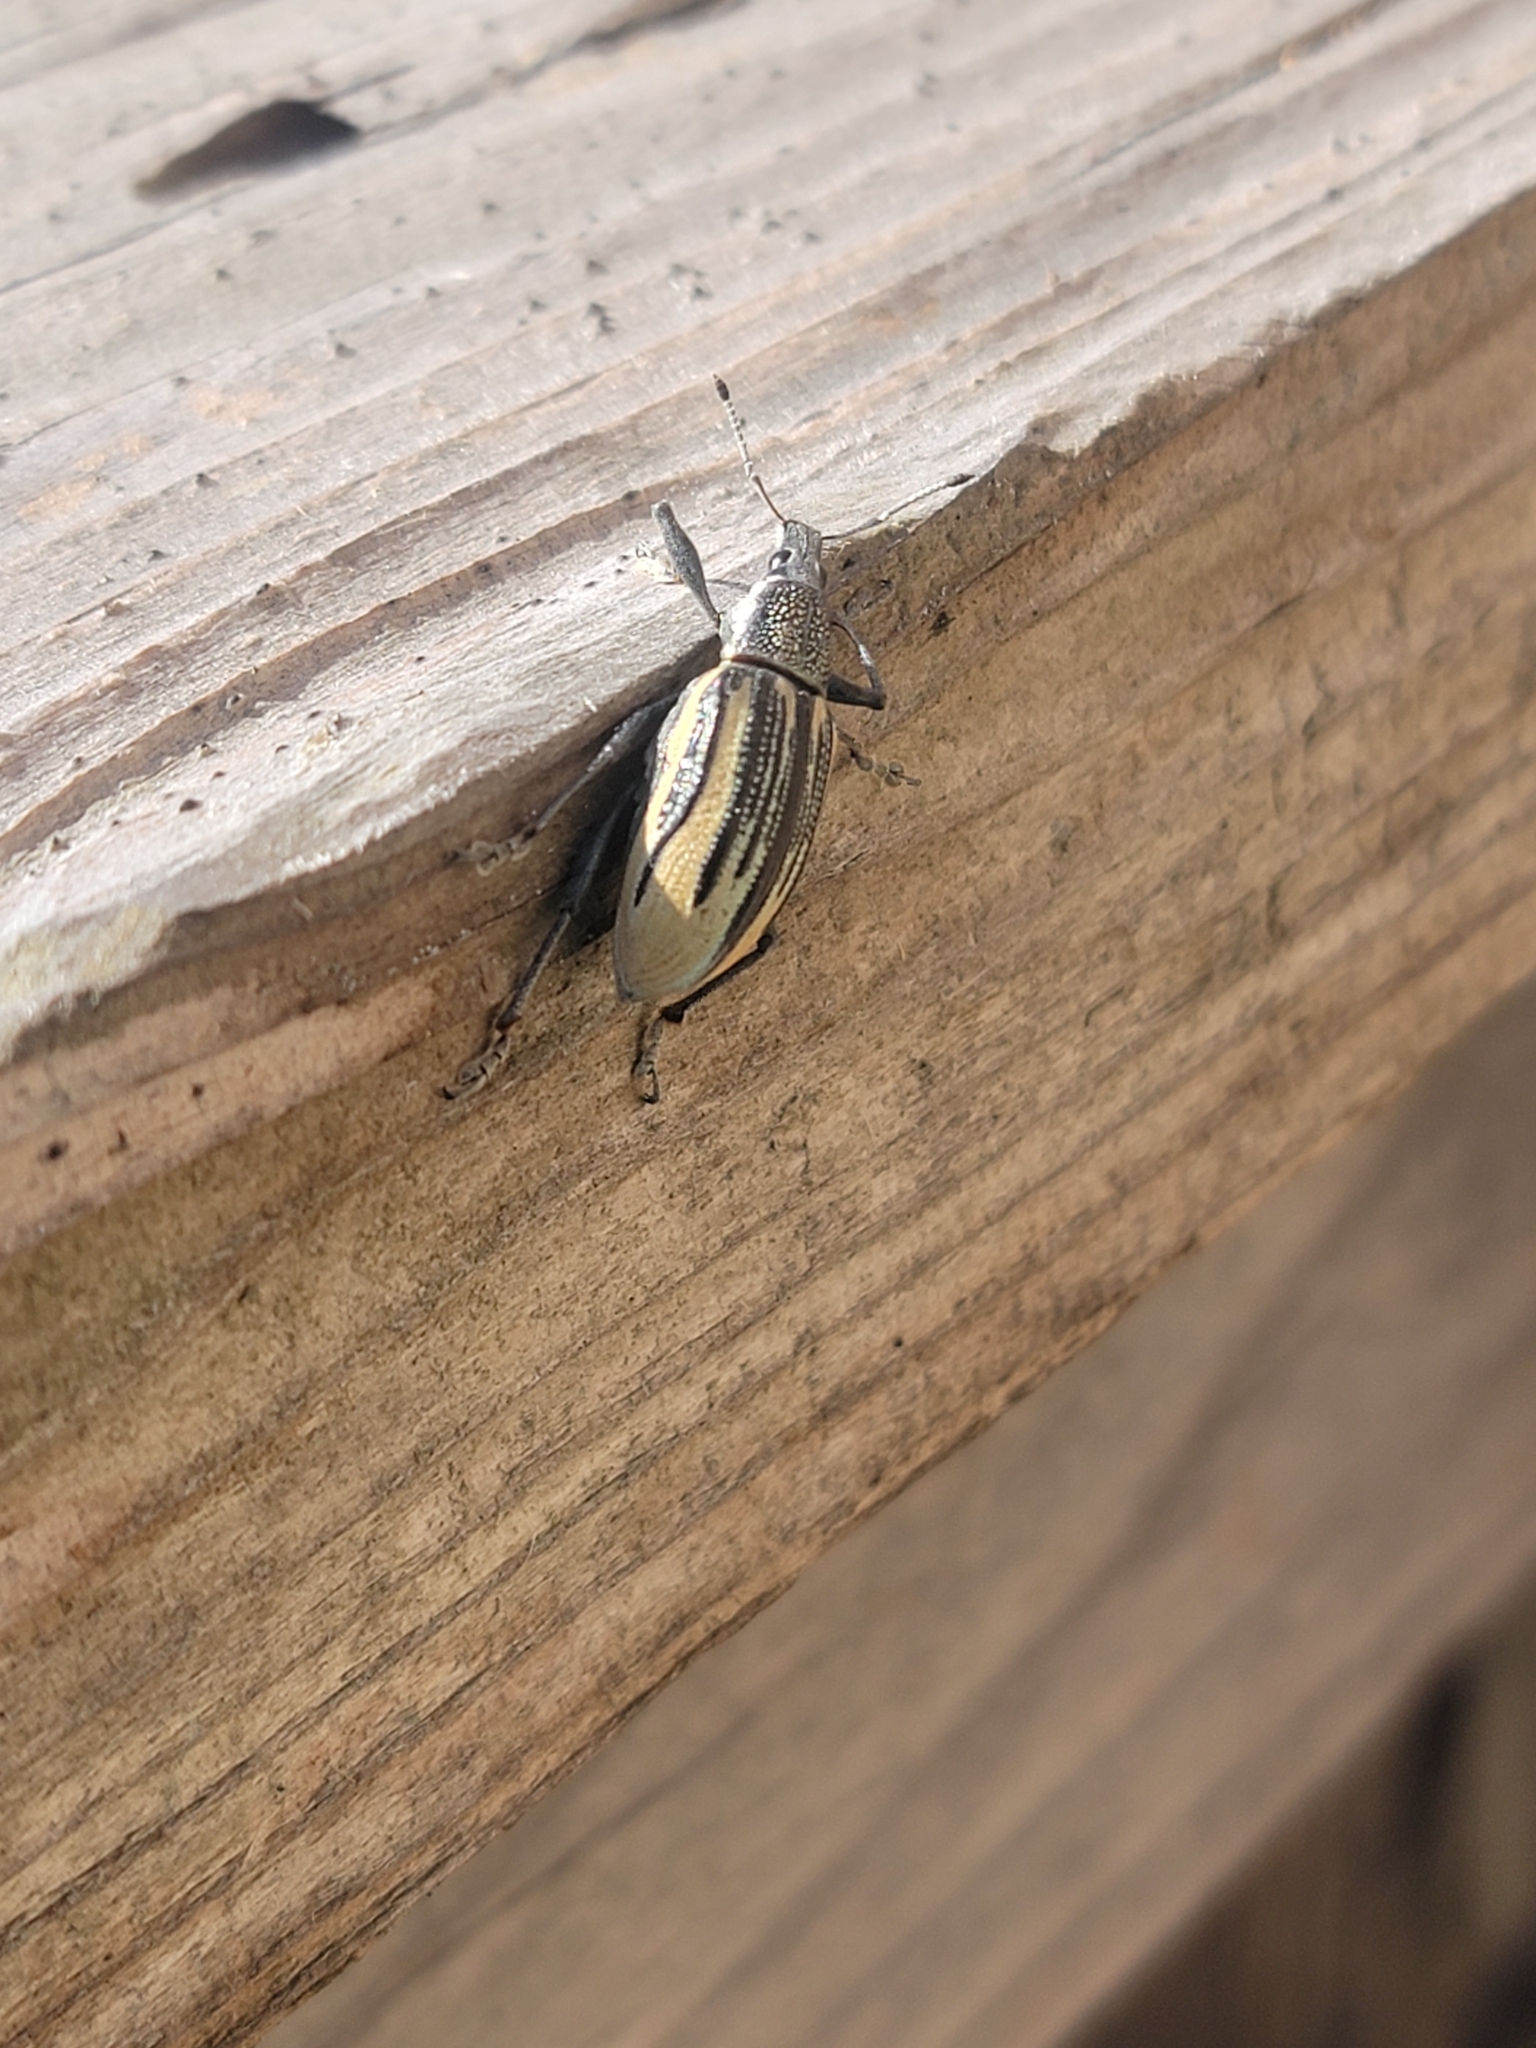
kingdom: Animalia
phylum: Arthropoda
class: Insecta
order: Coleoptera
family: Curculionidae
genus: Diaprepes
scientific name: Diaprepes abbreviatus
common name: Root weevil
